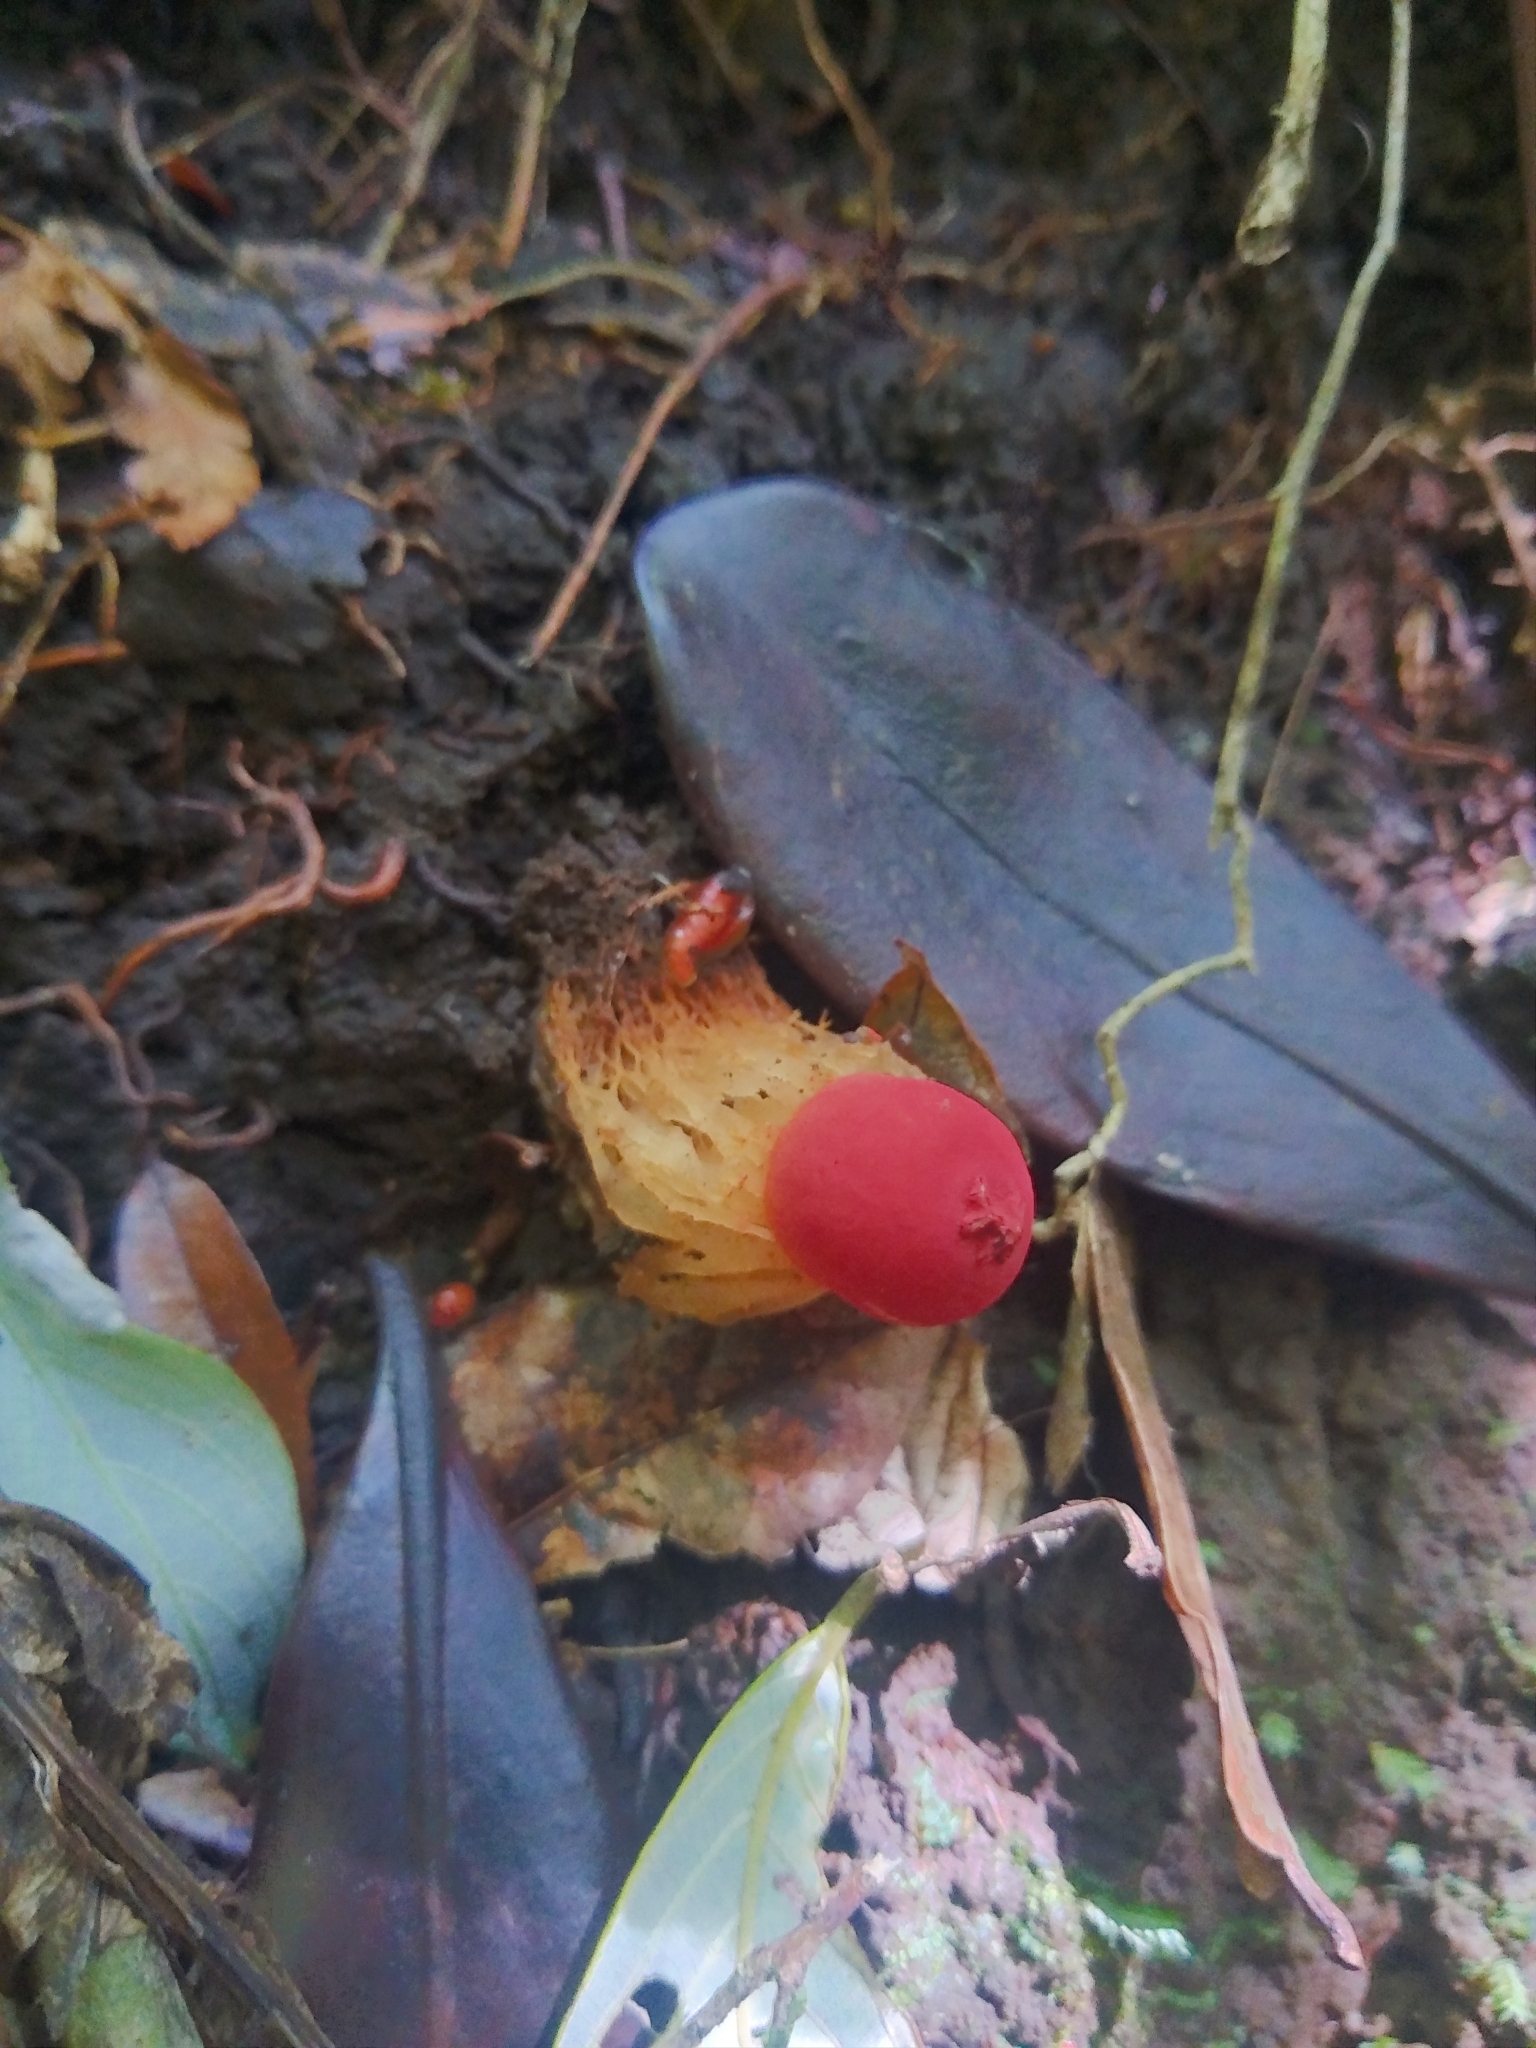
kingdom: Fungi
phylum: Basidiomycota
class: Agaricomycetes
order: Boletales
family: Calostomataceae
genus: Calostoma
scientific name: Calostoma cinnabarinum
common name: Stalked puffball-in-aspic
